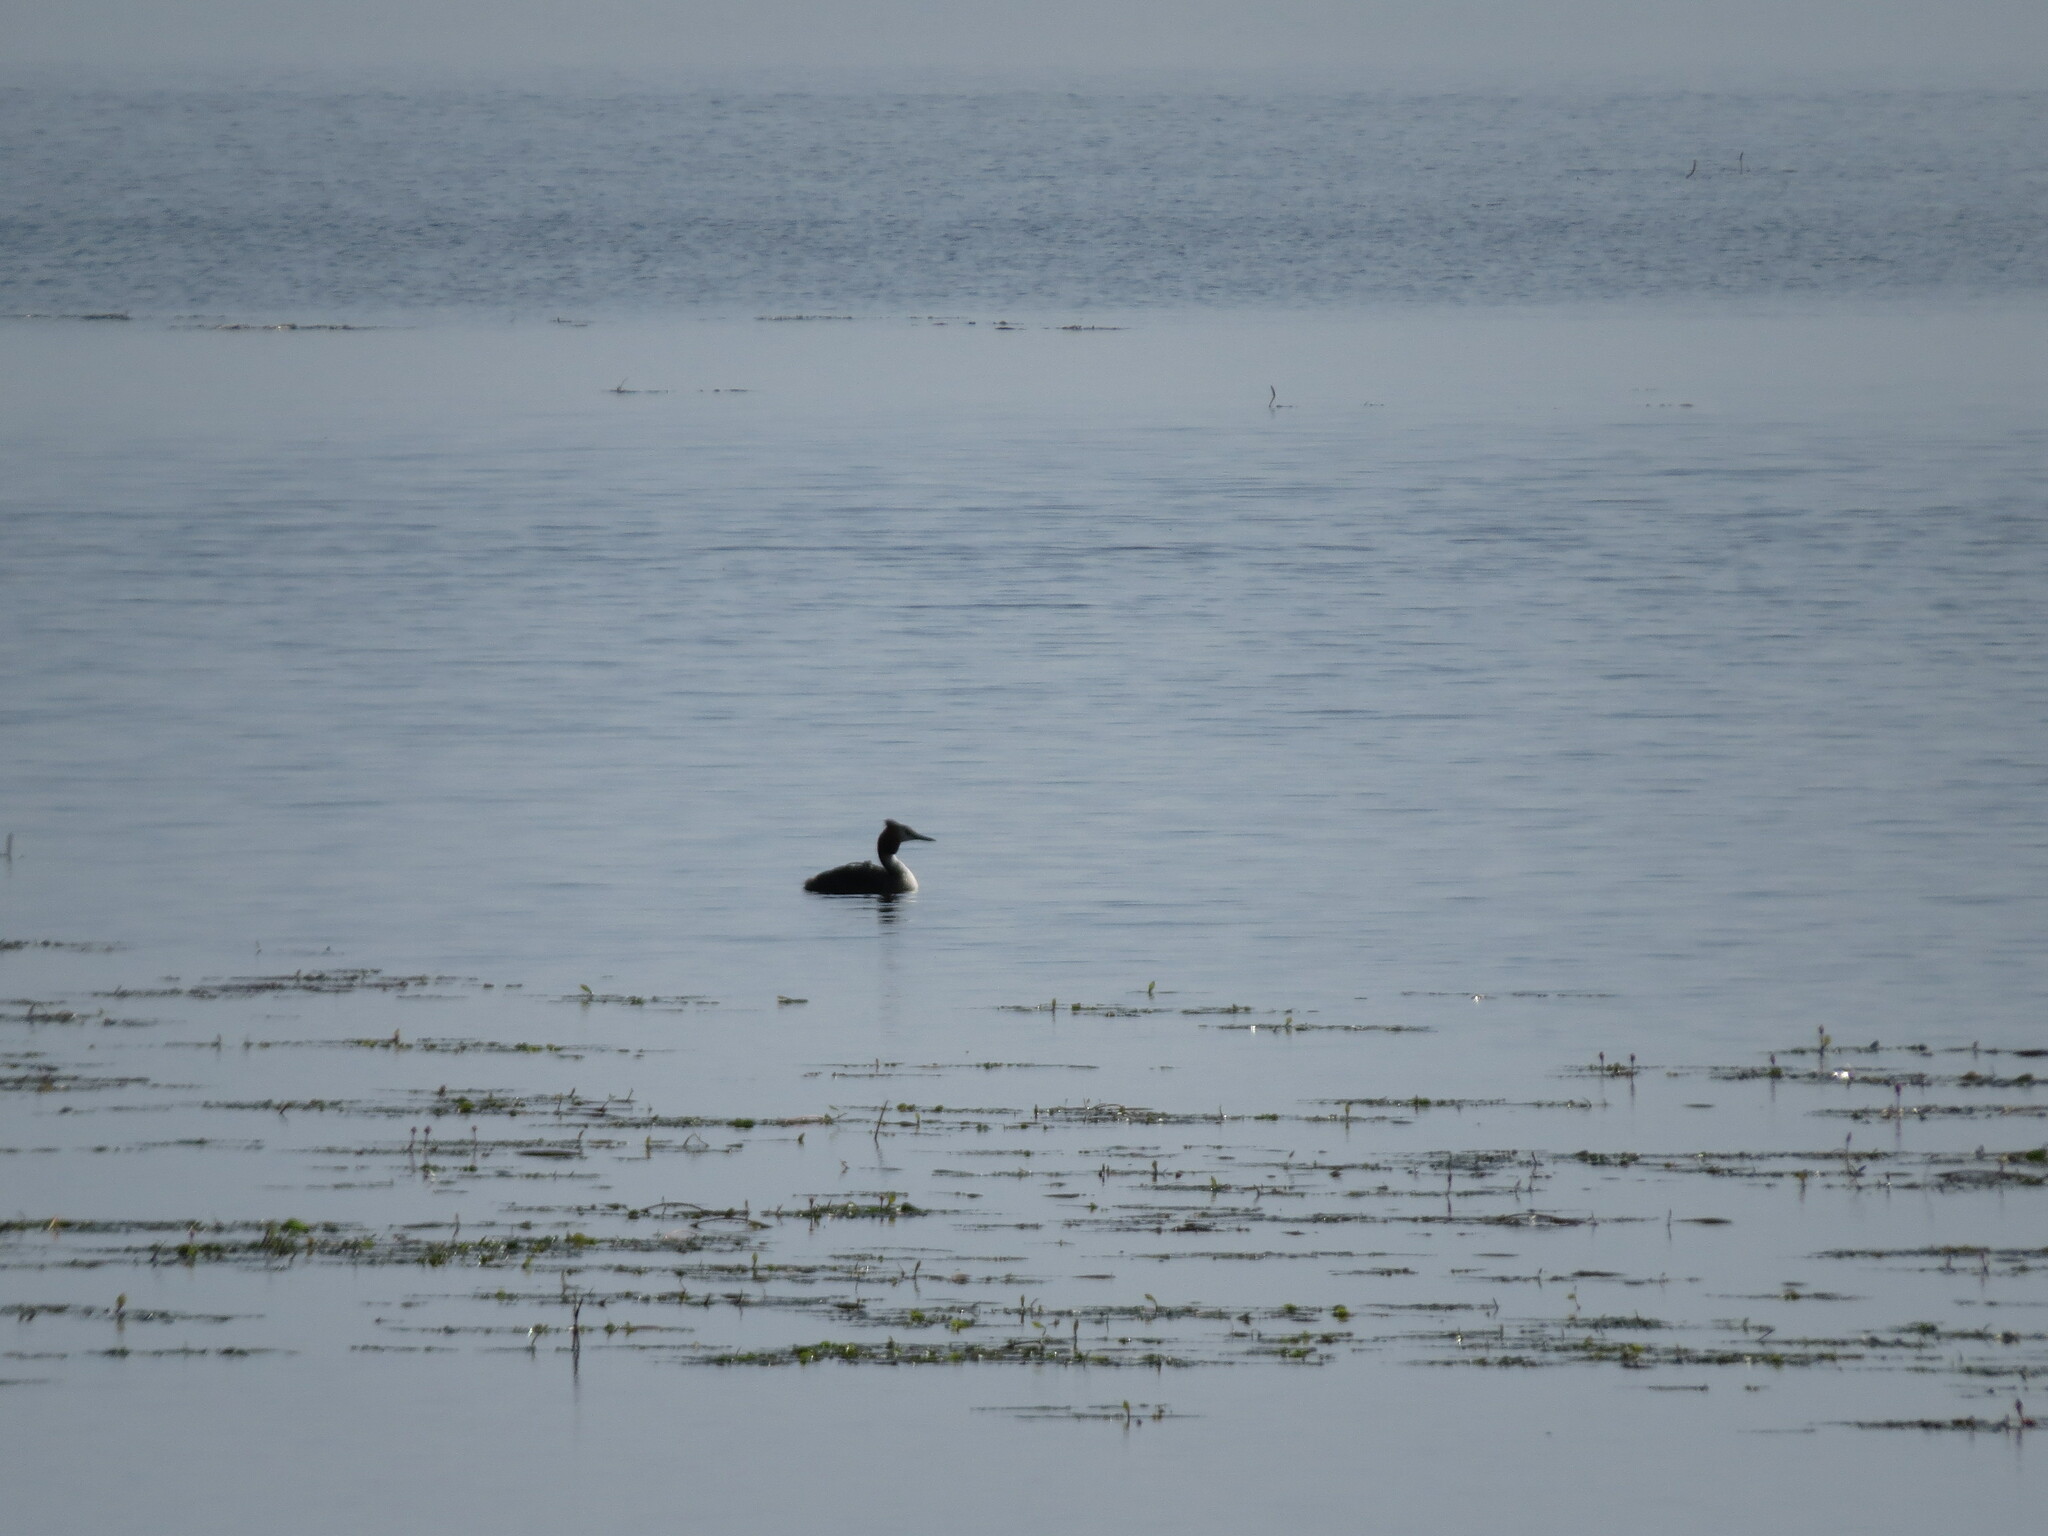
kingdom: Animalia
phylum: Chordata
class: Aves
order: Podicipediformes
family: Podicipedidae
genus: Podiceps
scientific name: Podiceps cristatus
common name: Great crested grebe
